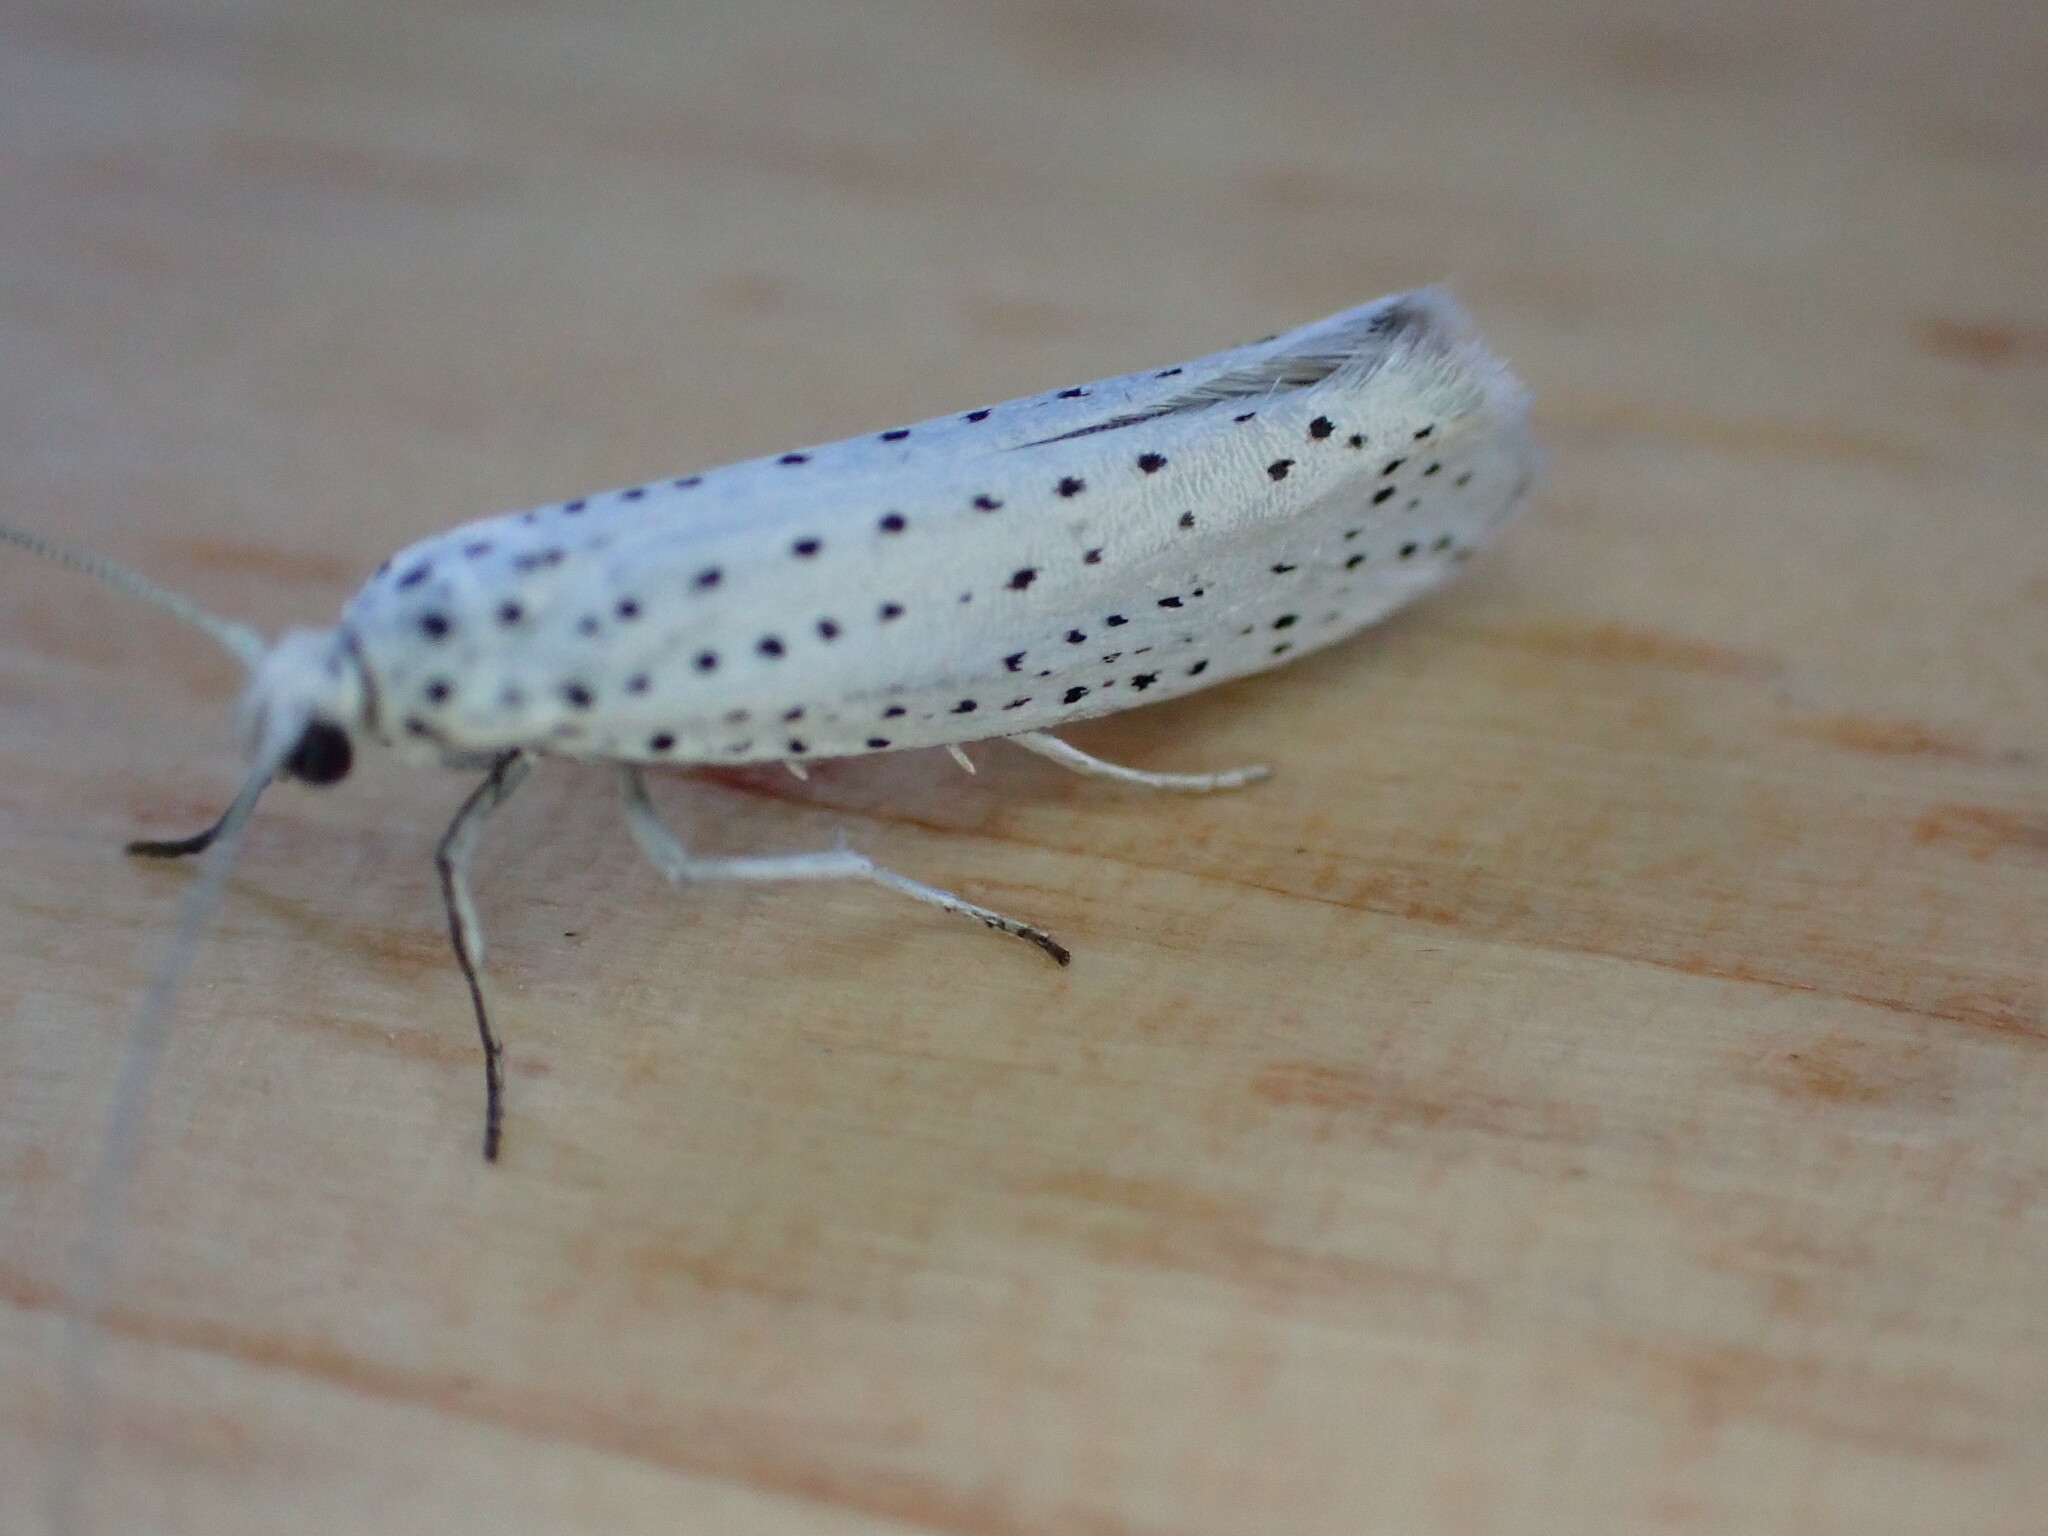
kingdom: Animalia
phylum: Arthropoda
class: Insecta
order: Lepidoptera
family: Yponomeutidae
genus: Yponomeuta
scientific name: Yponomeuta evonymella
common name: Bird-cherry ermine
